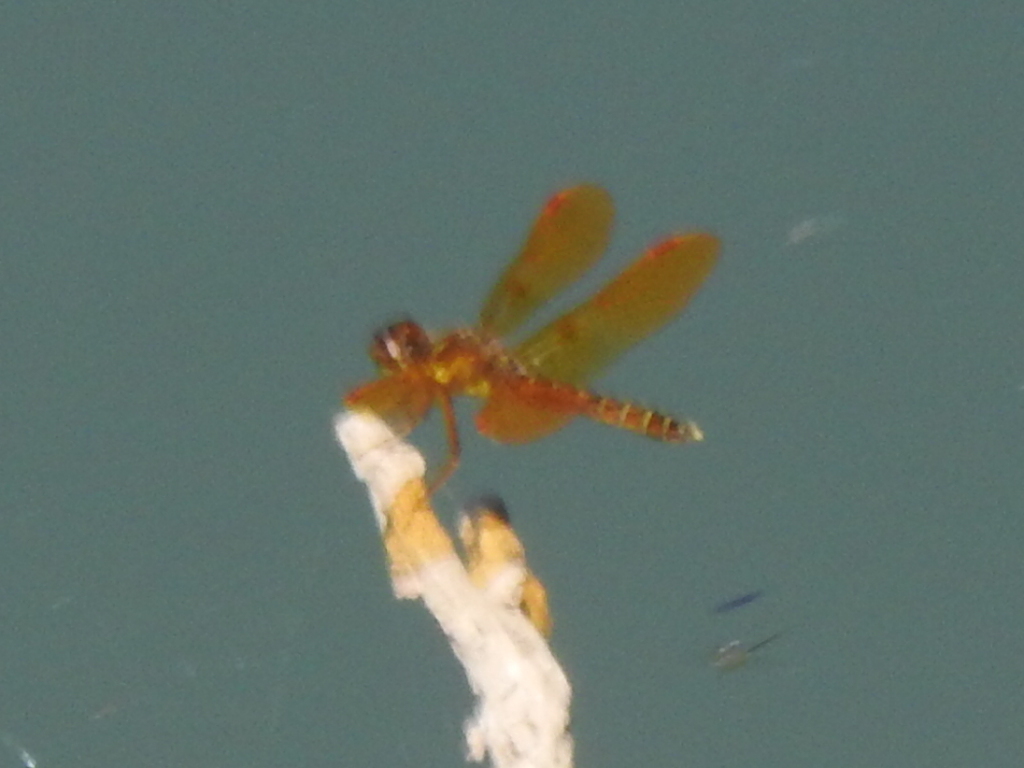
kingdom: Animalia
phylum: Arthropoda
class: Insecta
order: Odonata
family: Libellulidae
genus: Perithemis
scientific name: Perithemis tenera
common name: Eastern amberwing
